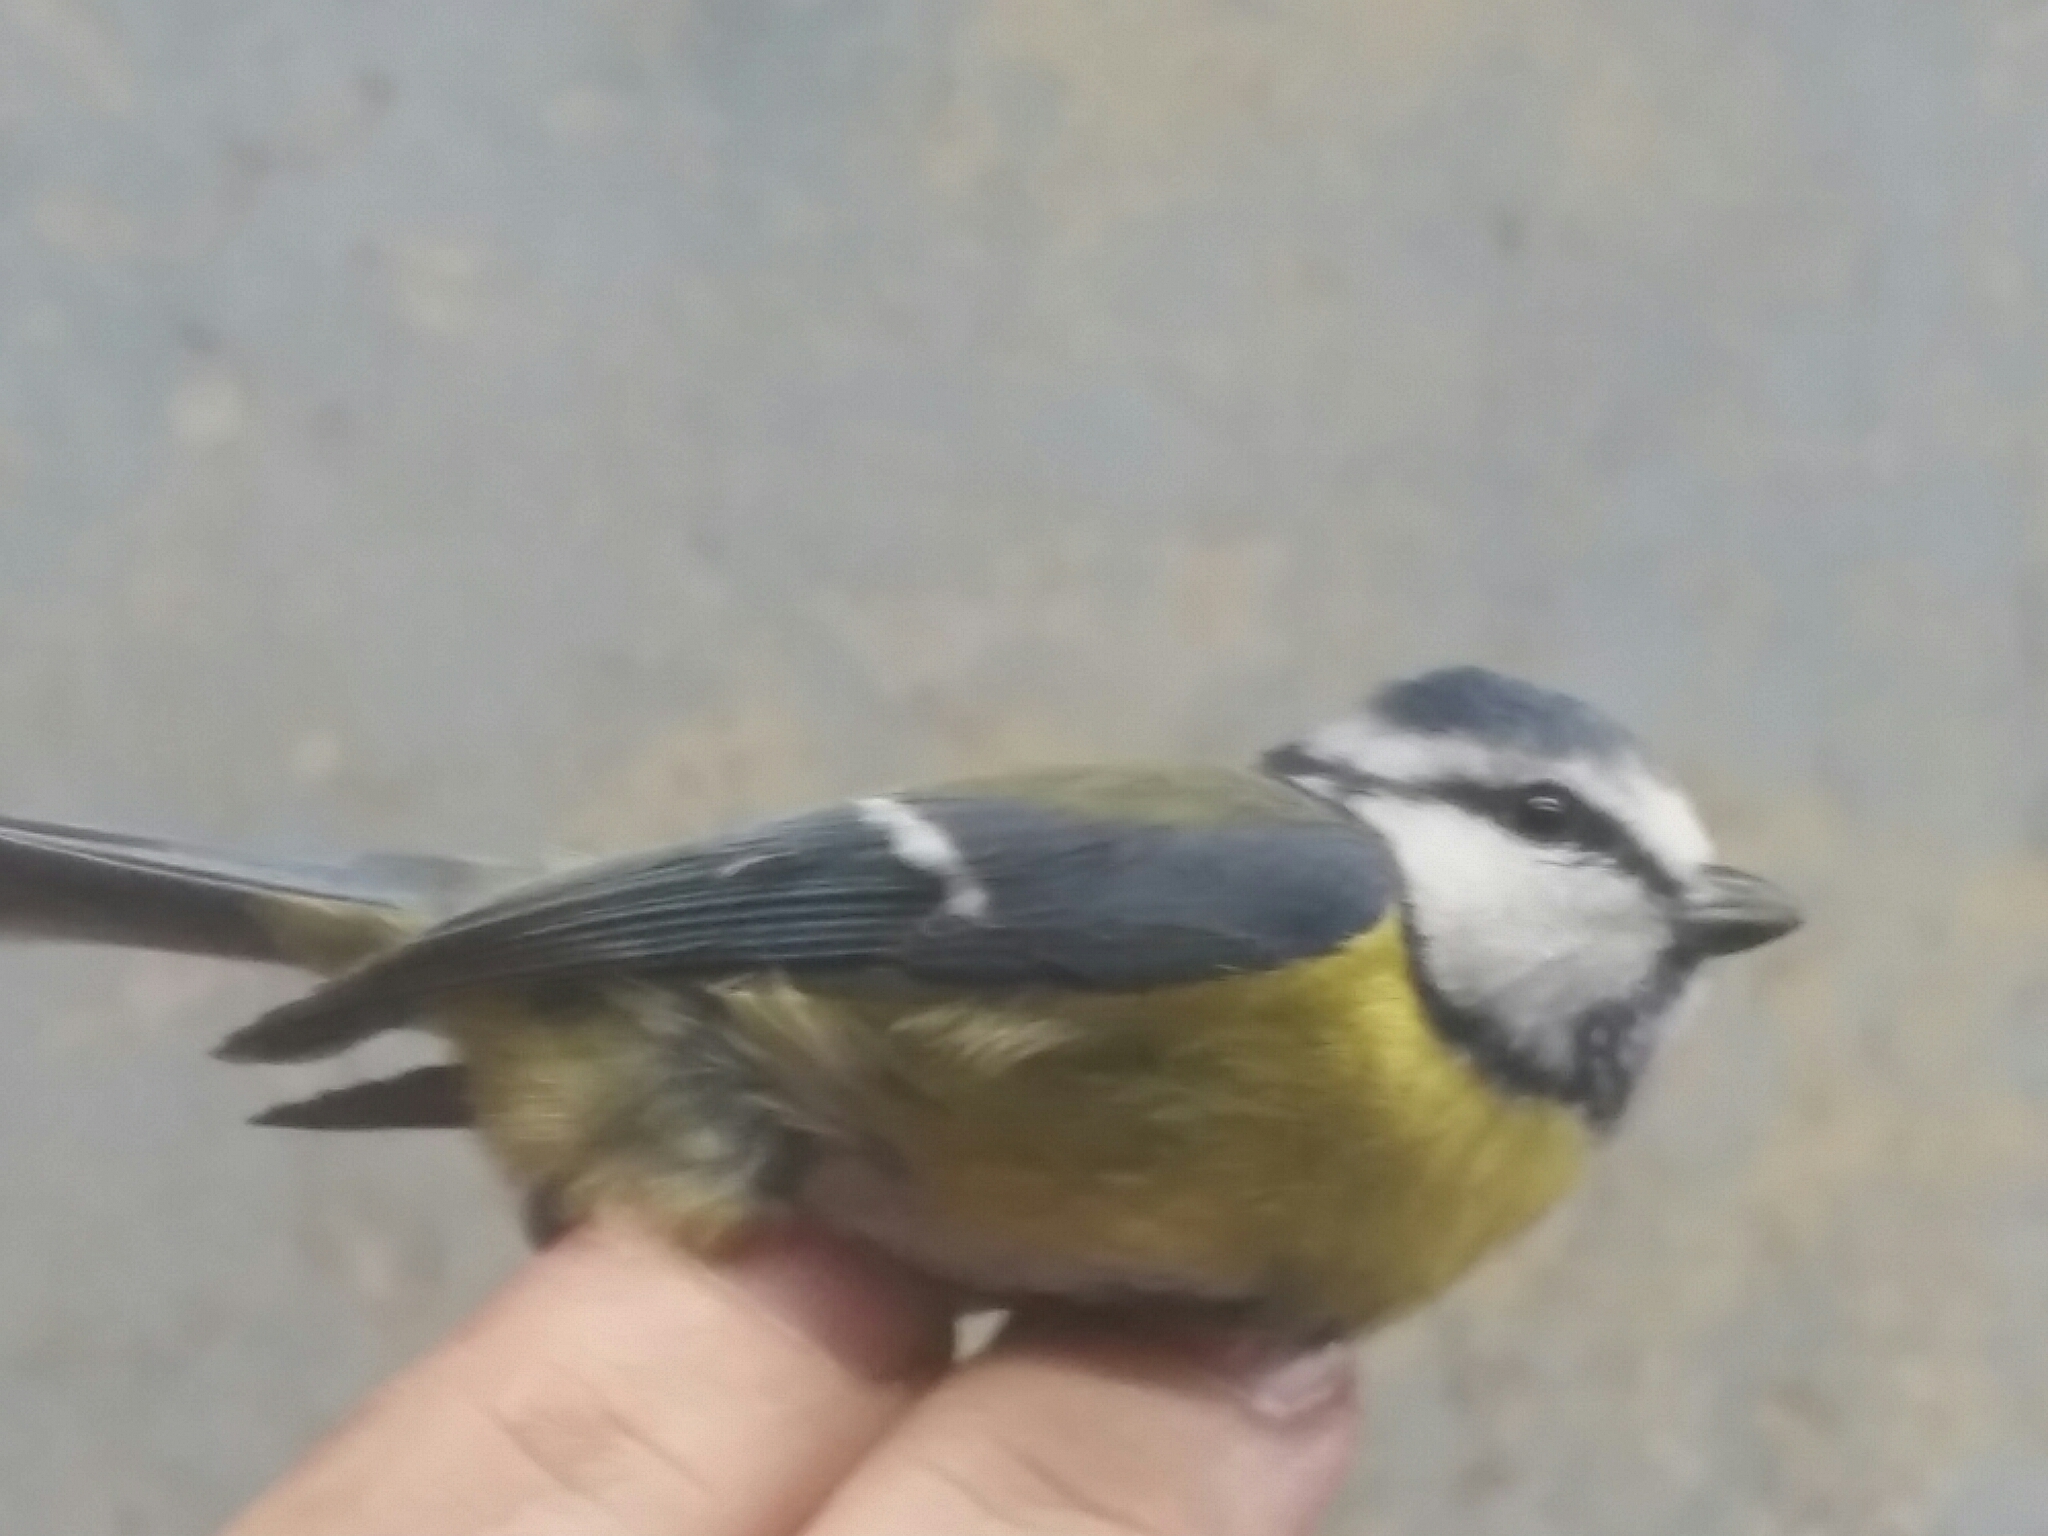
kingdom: Animalia
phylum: Chordata
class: Aves
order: Passeriformes
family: Paridae
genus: Cyanistes
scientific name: Cyanistes caeruleus
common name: Eurasian blue tit
